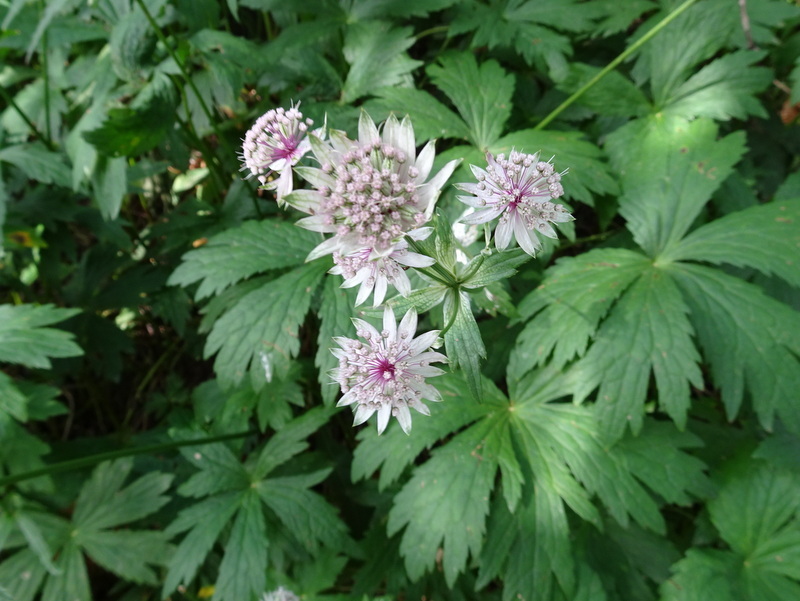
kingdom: Plantae
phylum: Tracheophyta
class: Magnoliopsida
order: Apiales
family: Apiaceae
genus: Astrantia
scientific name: Astrantia major
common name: Greater masterwort
